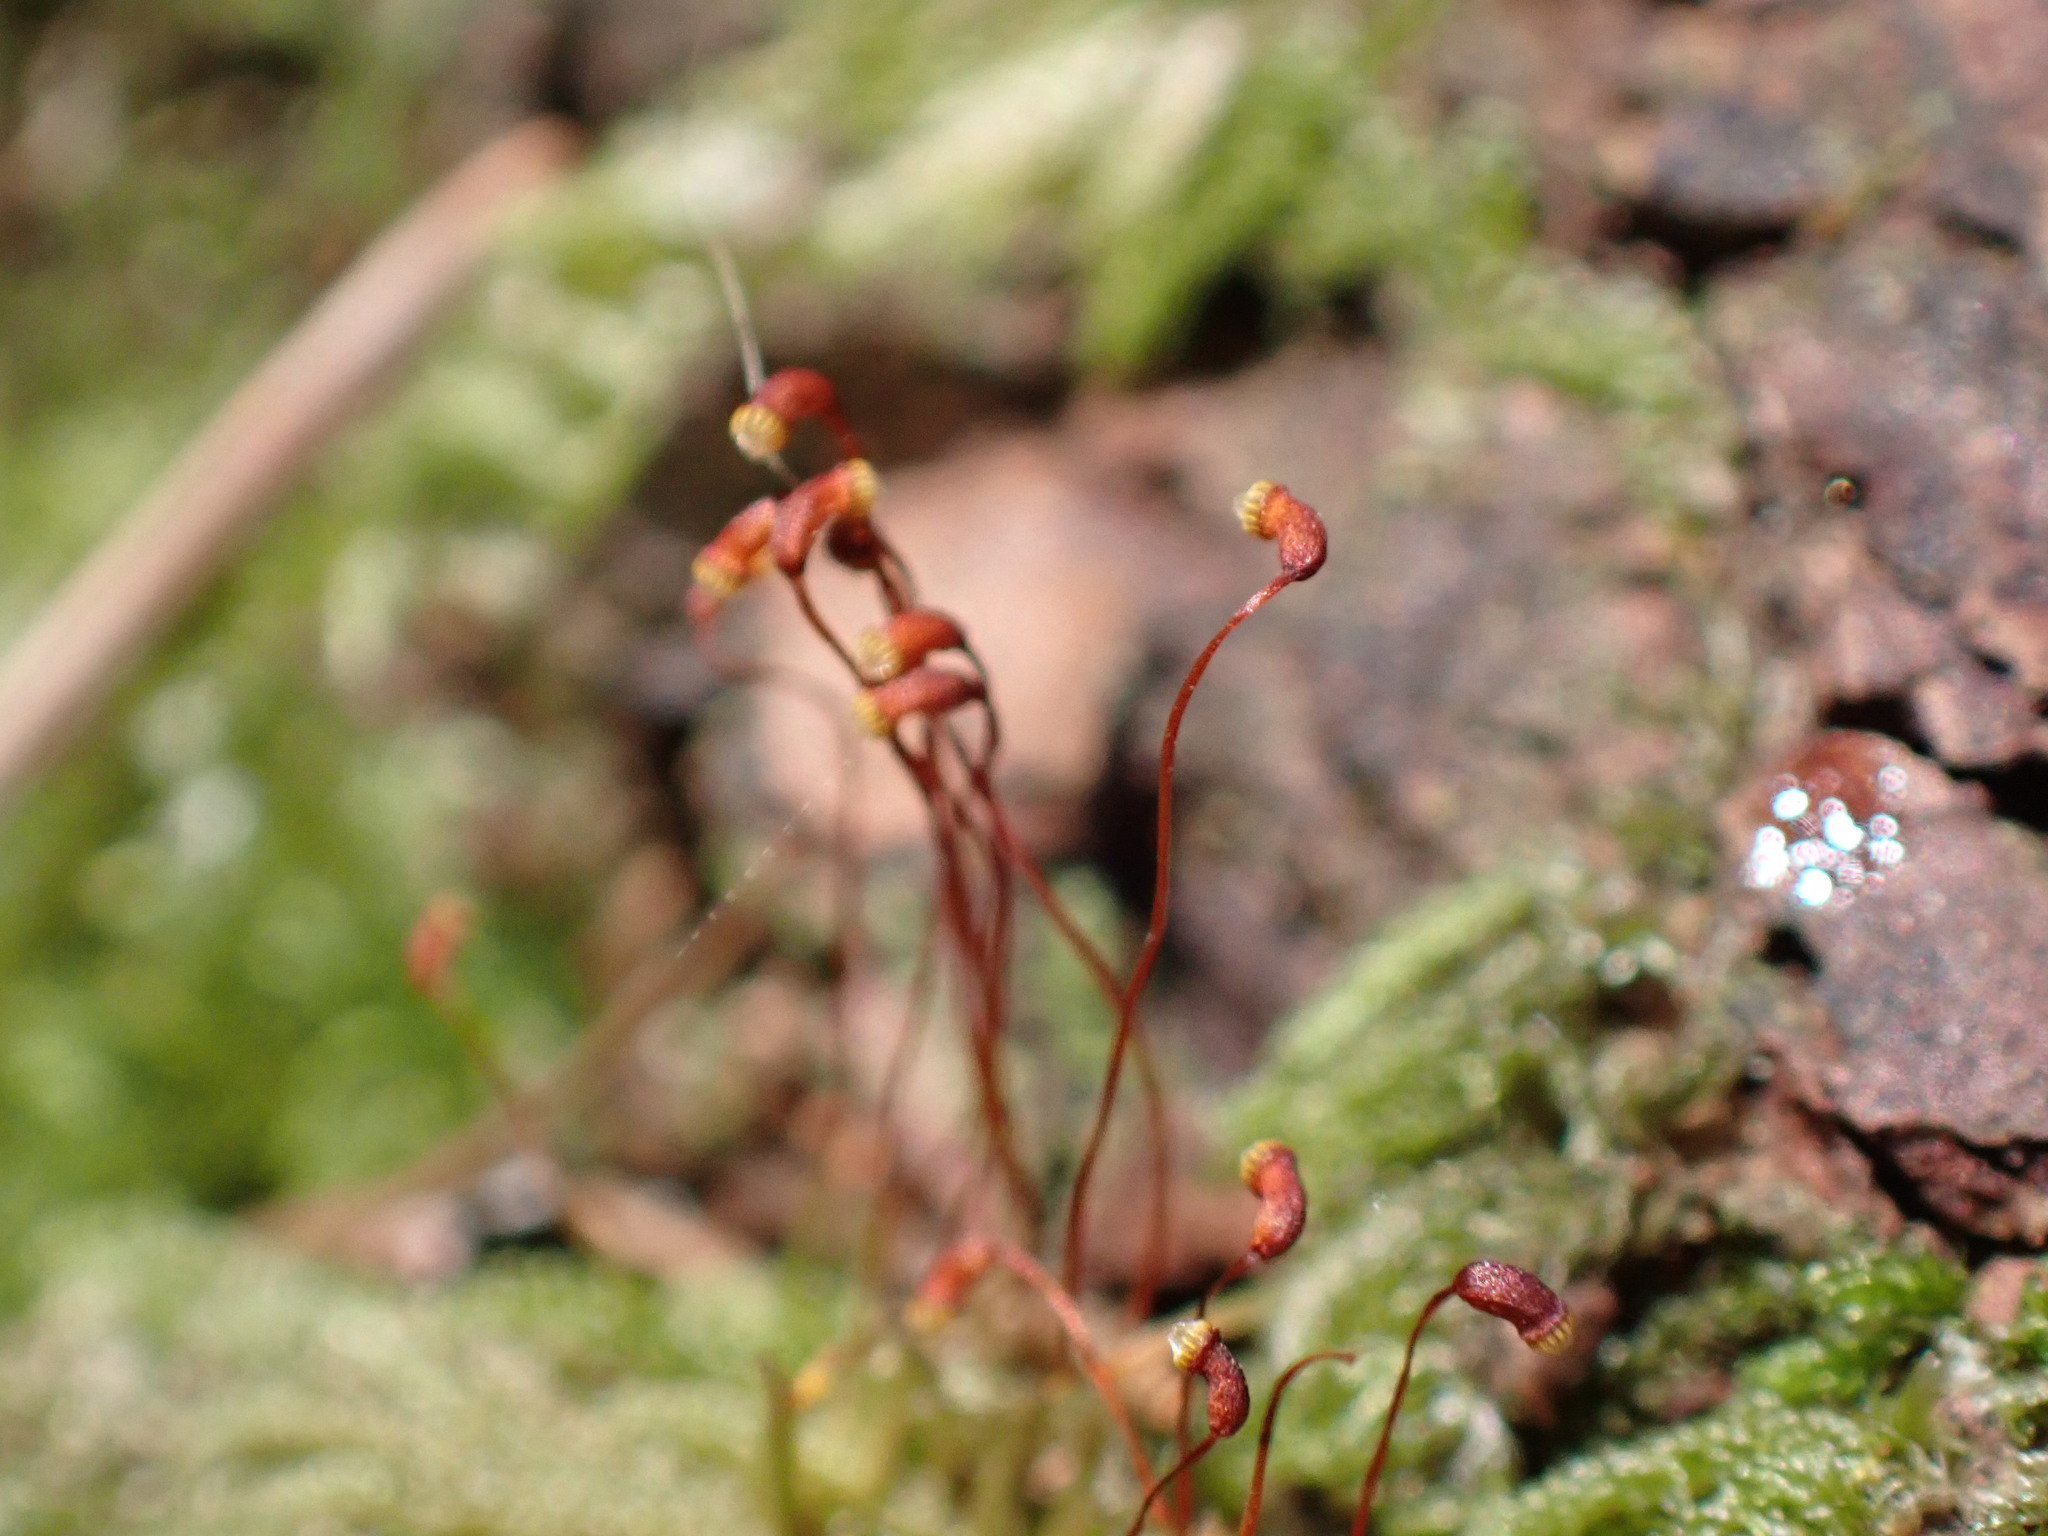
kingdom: Plantae
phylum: Bryophyta
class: Bryopsida
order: Hypnales
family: Pylaisiadelphaceae
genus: Trochophyllohypnum
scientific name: Trochophyllohypnum circinale
